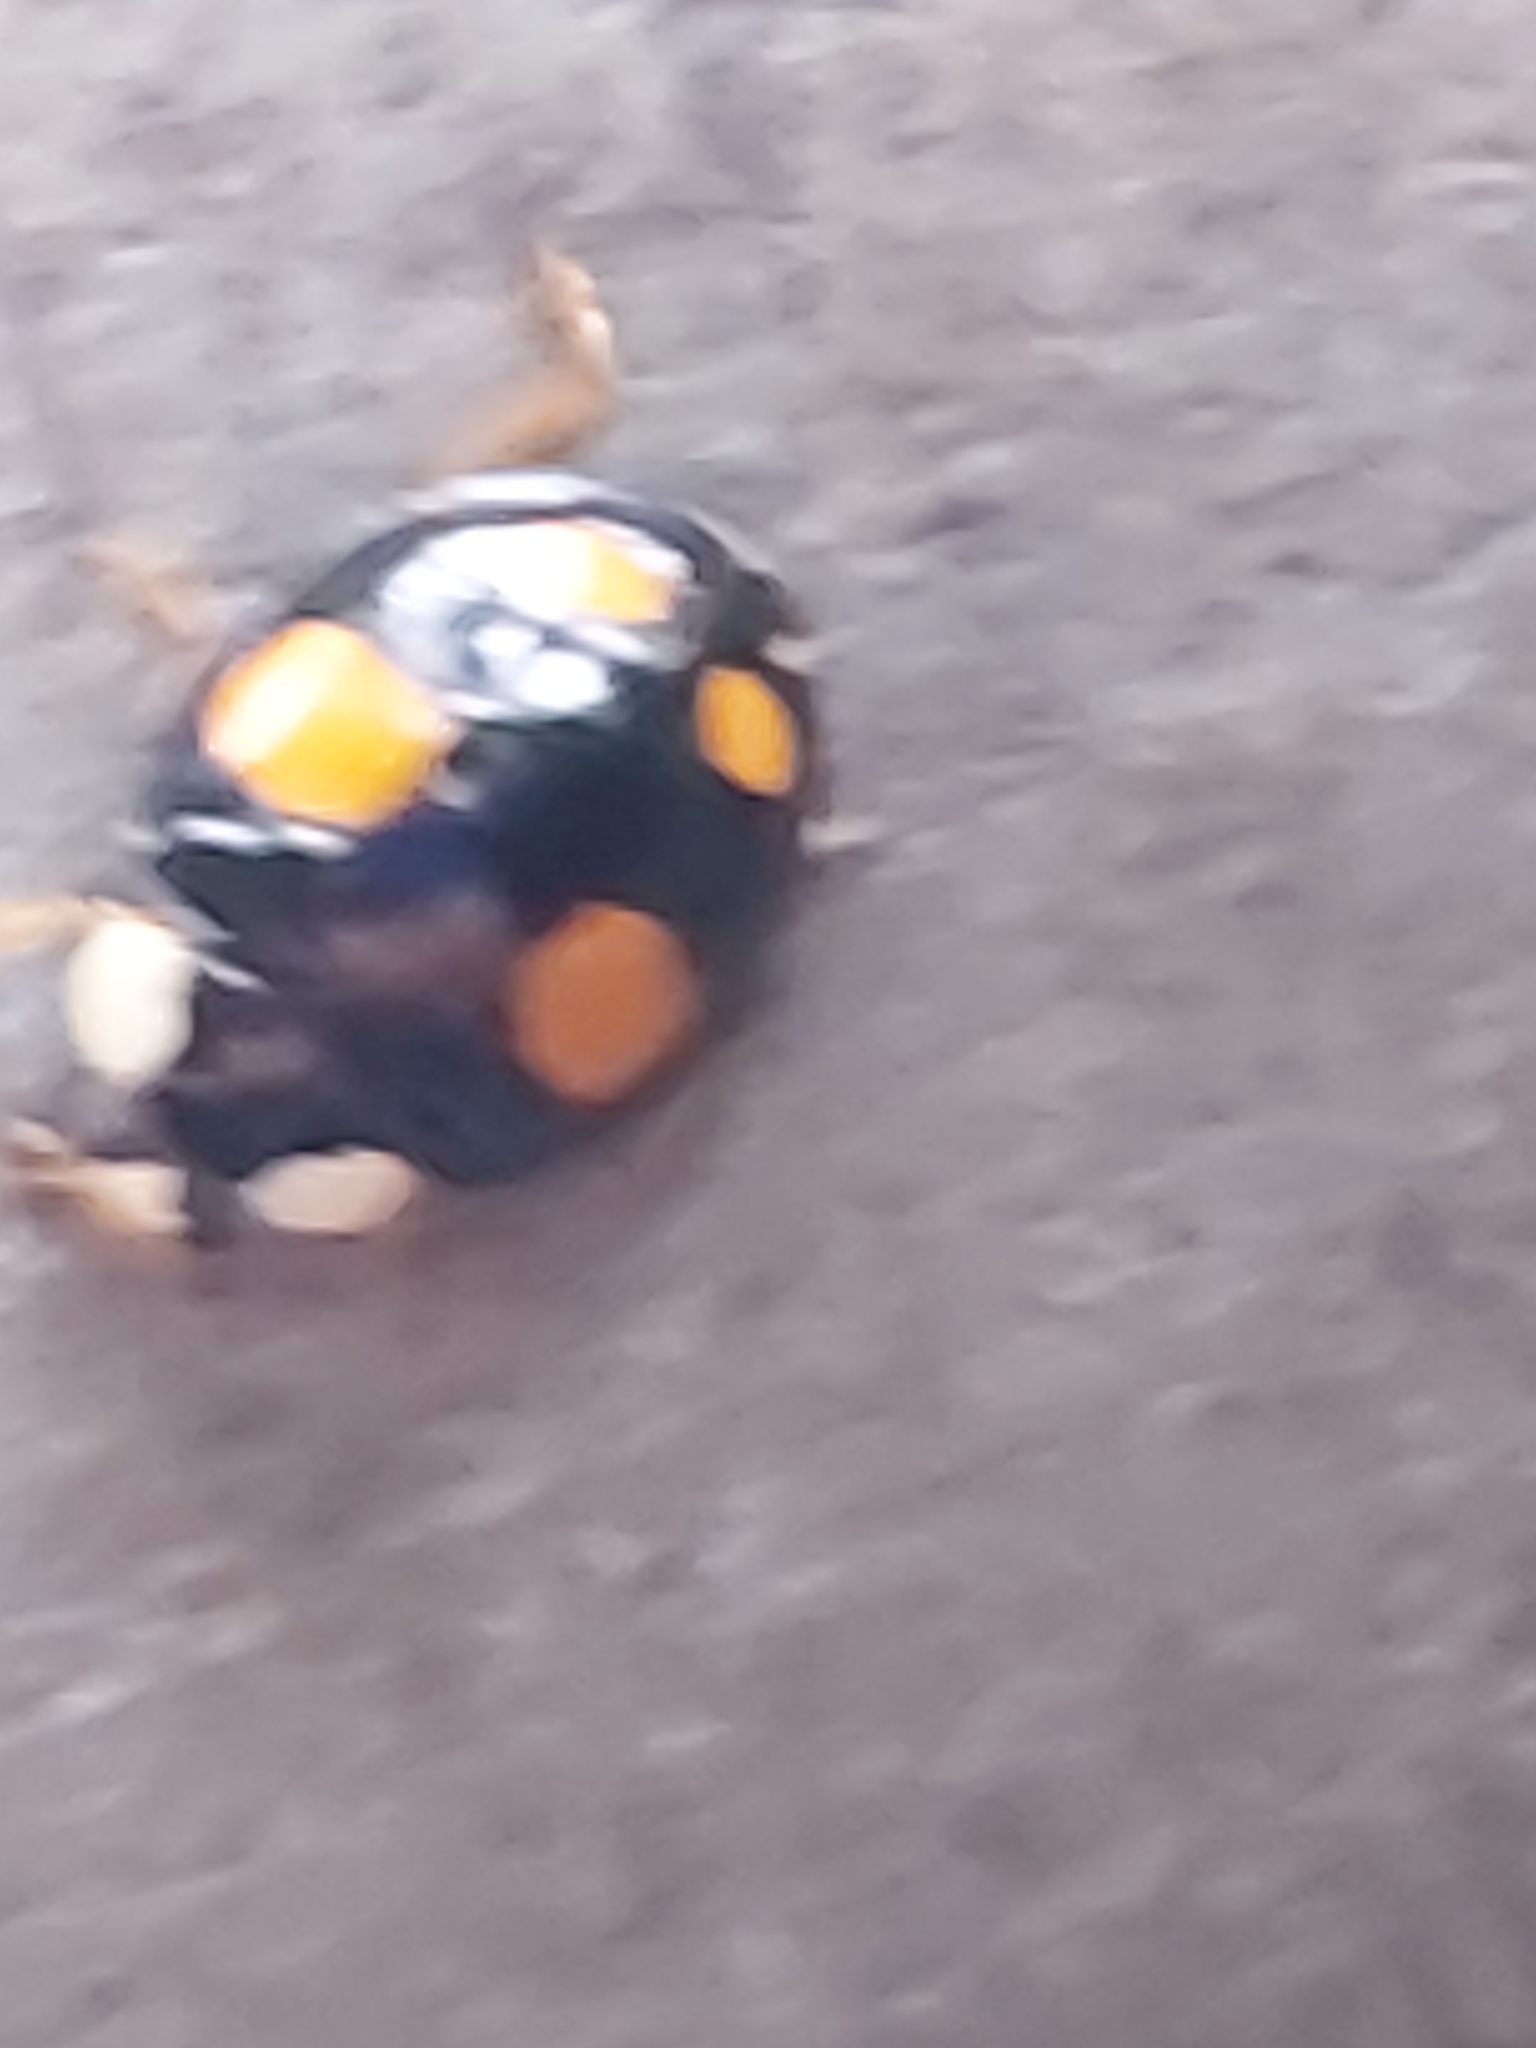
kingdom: Animalia
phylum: Arthropoda
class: Insecta
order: Coleoptera
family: Coccinellidae
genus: Harmonia
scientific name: Harmonia axyridis
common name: Harlequin ladybird
